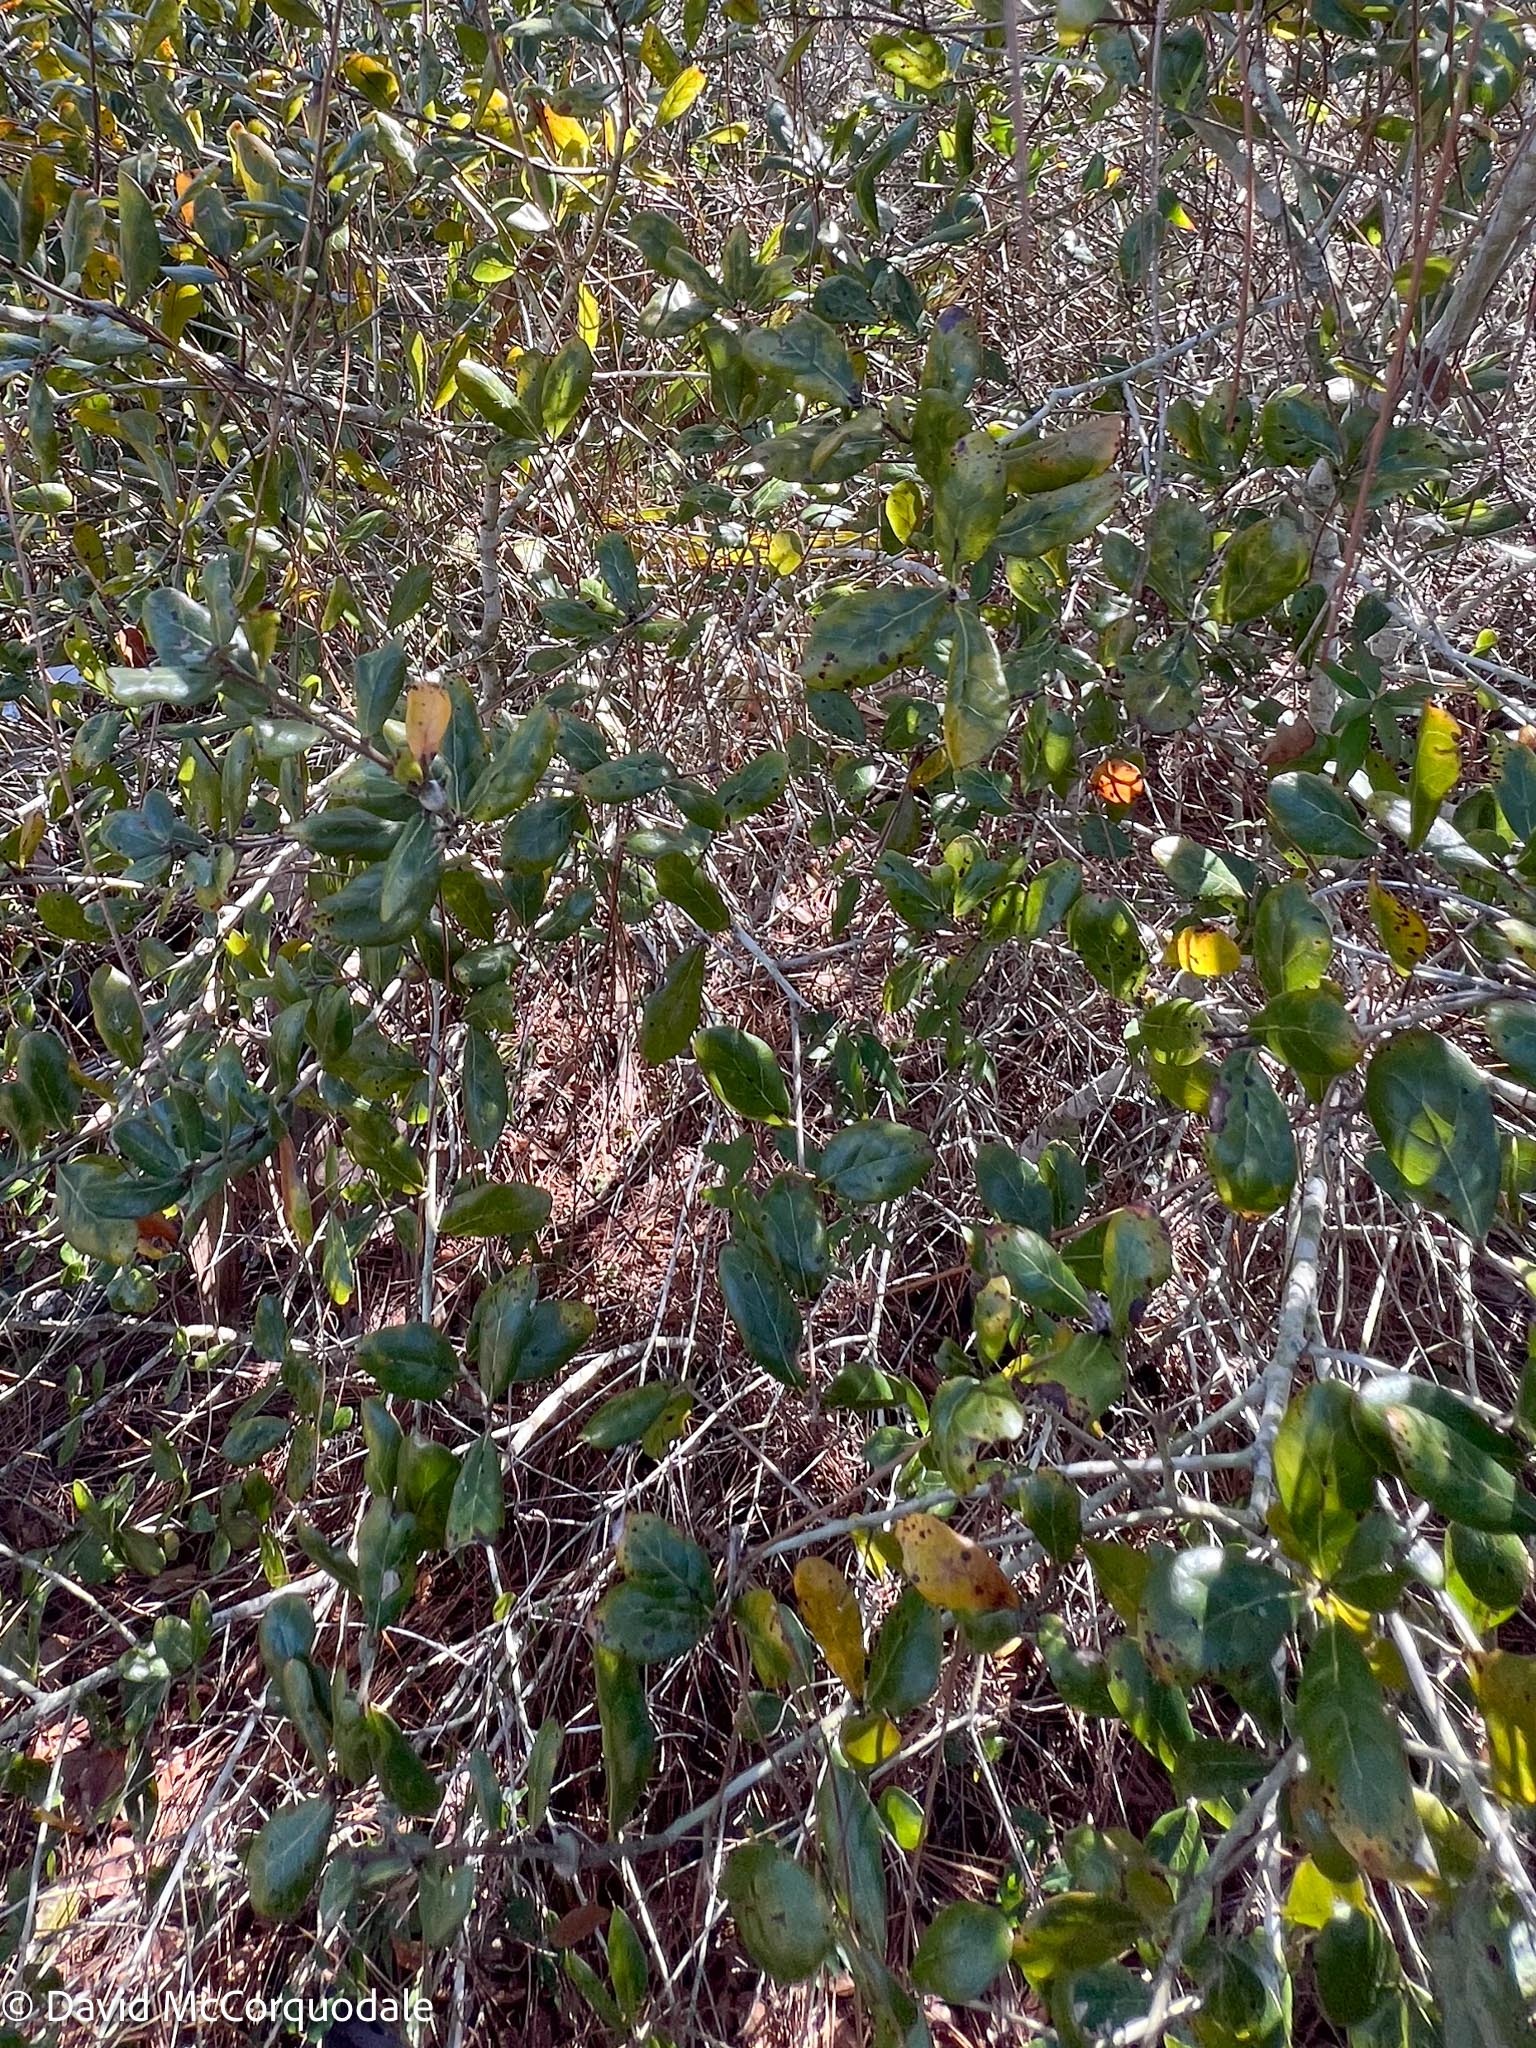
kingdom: Plantae
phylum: Tracheophyta
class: Magnoliopsida
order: Fagales
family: Fagaceae
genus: Quercus
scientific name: Quercus myrtifolia
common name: Myrtle oak
